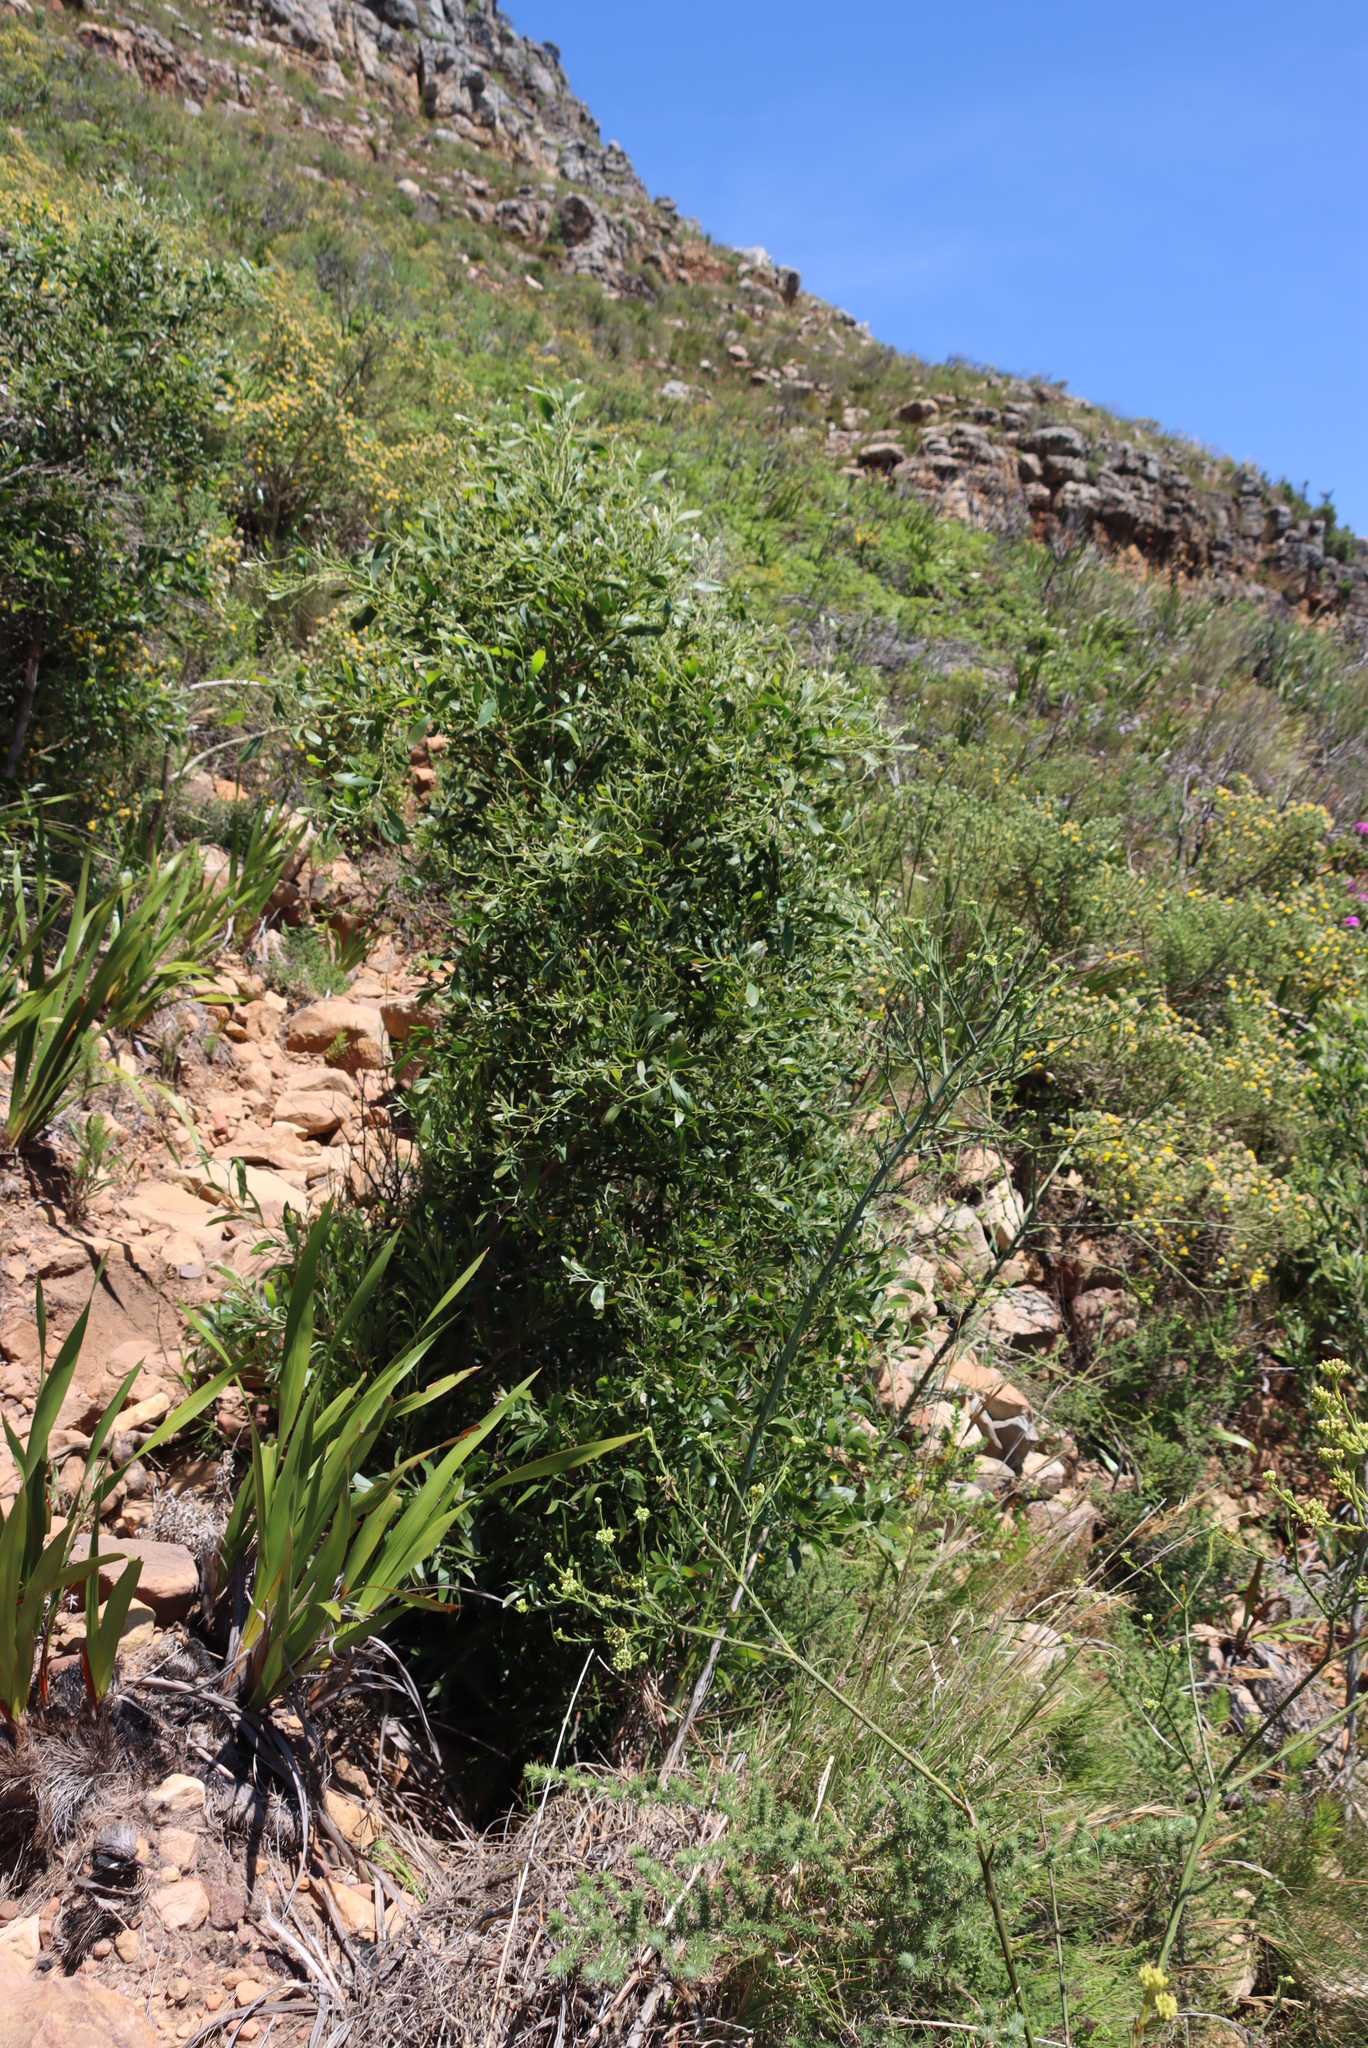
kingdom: Plantae
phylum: Tracheophyta
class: Magnoliopsida
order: Fabales
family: Fabaceae
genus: Acacia
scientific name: Acacia melanoxylon
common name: Blackwood
